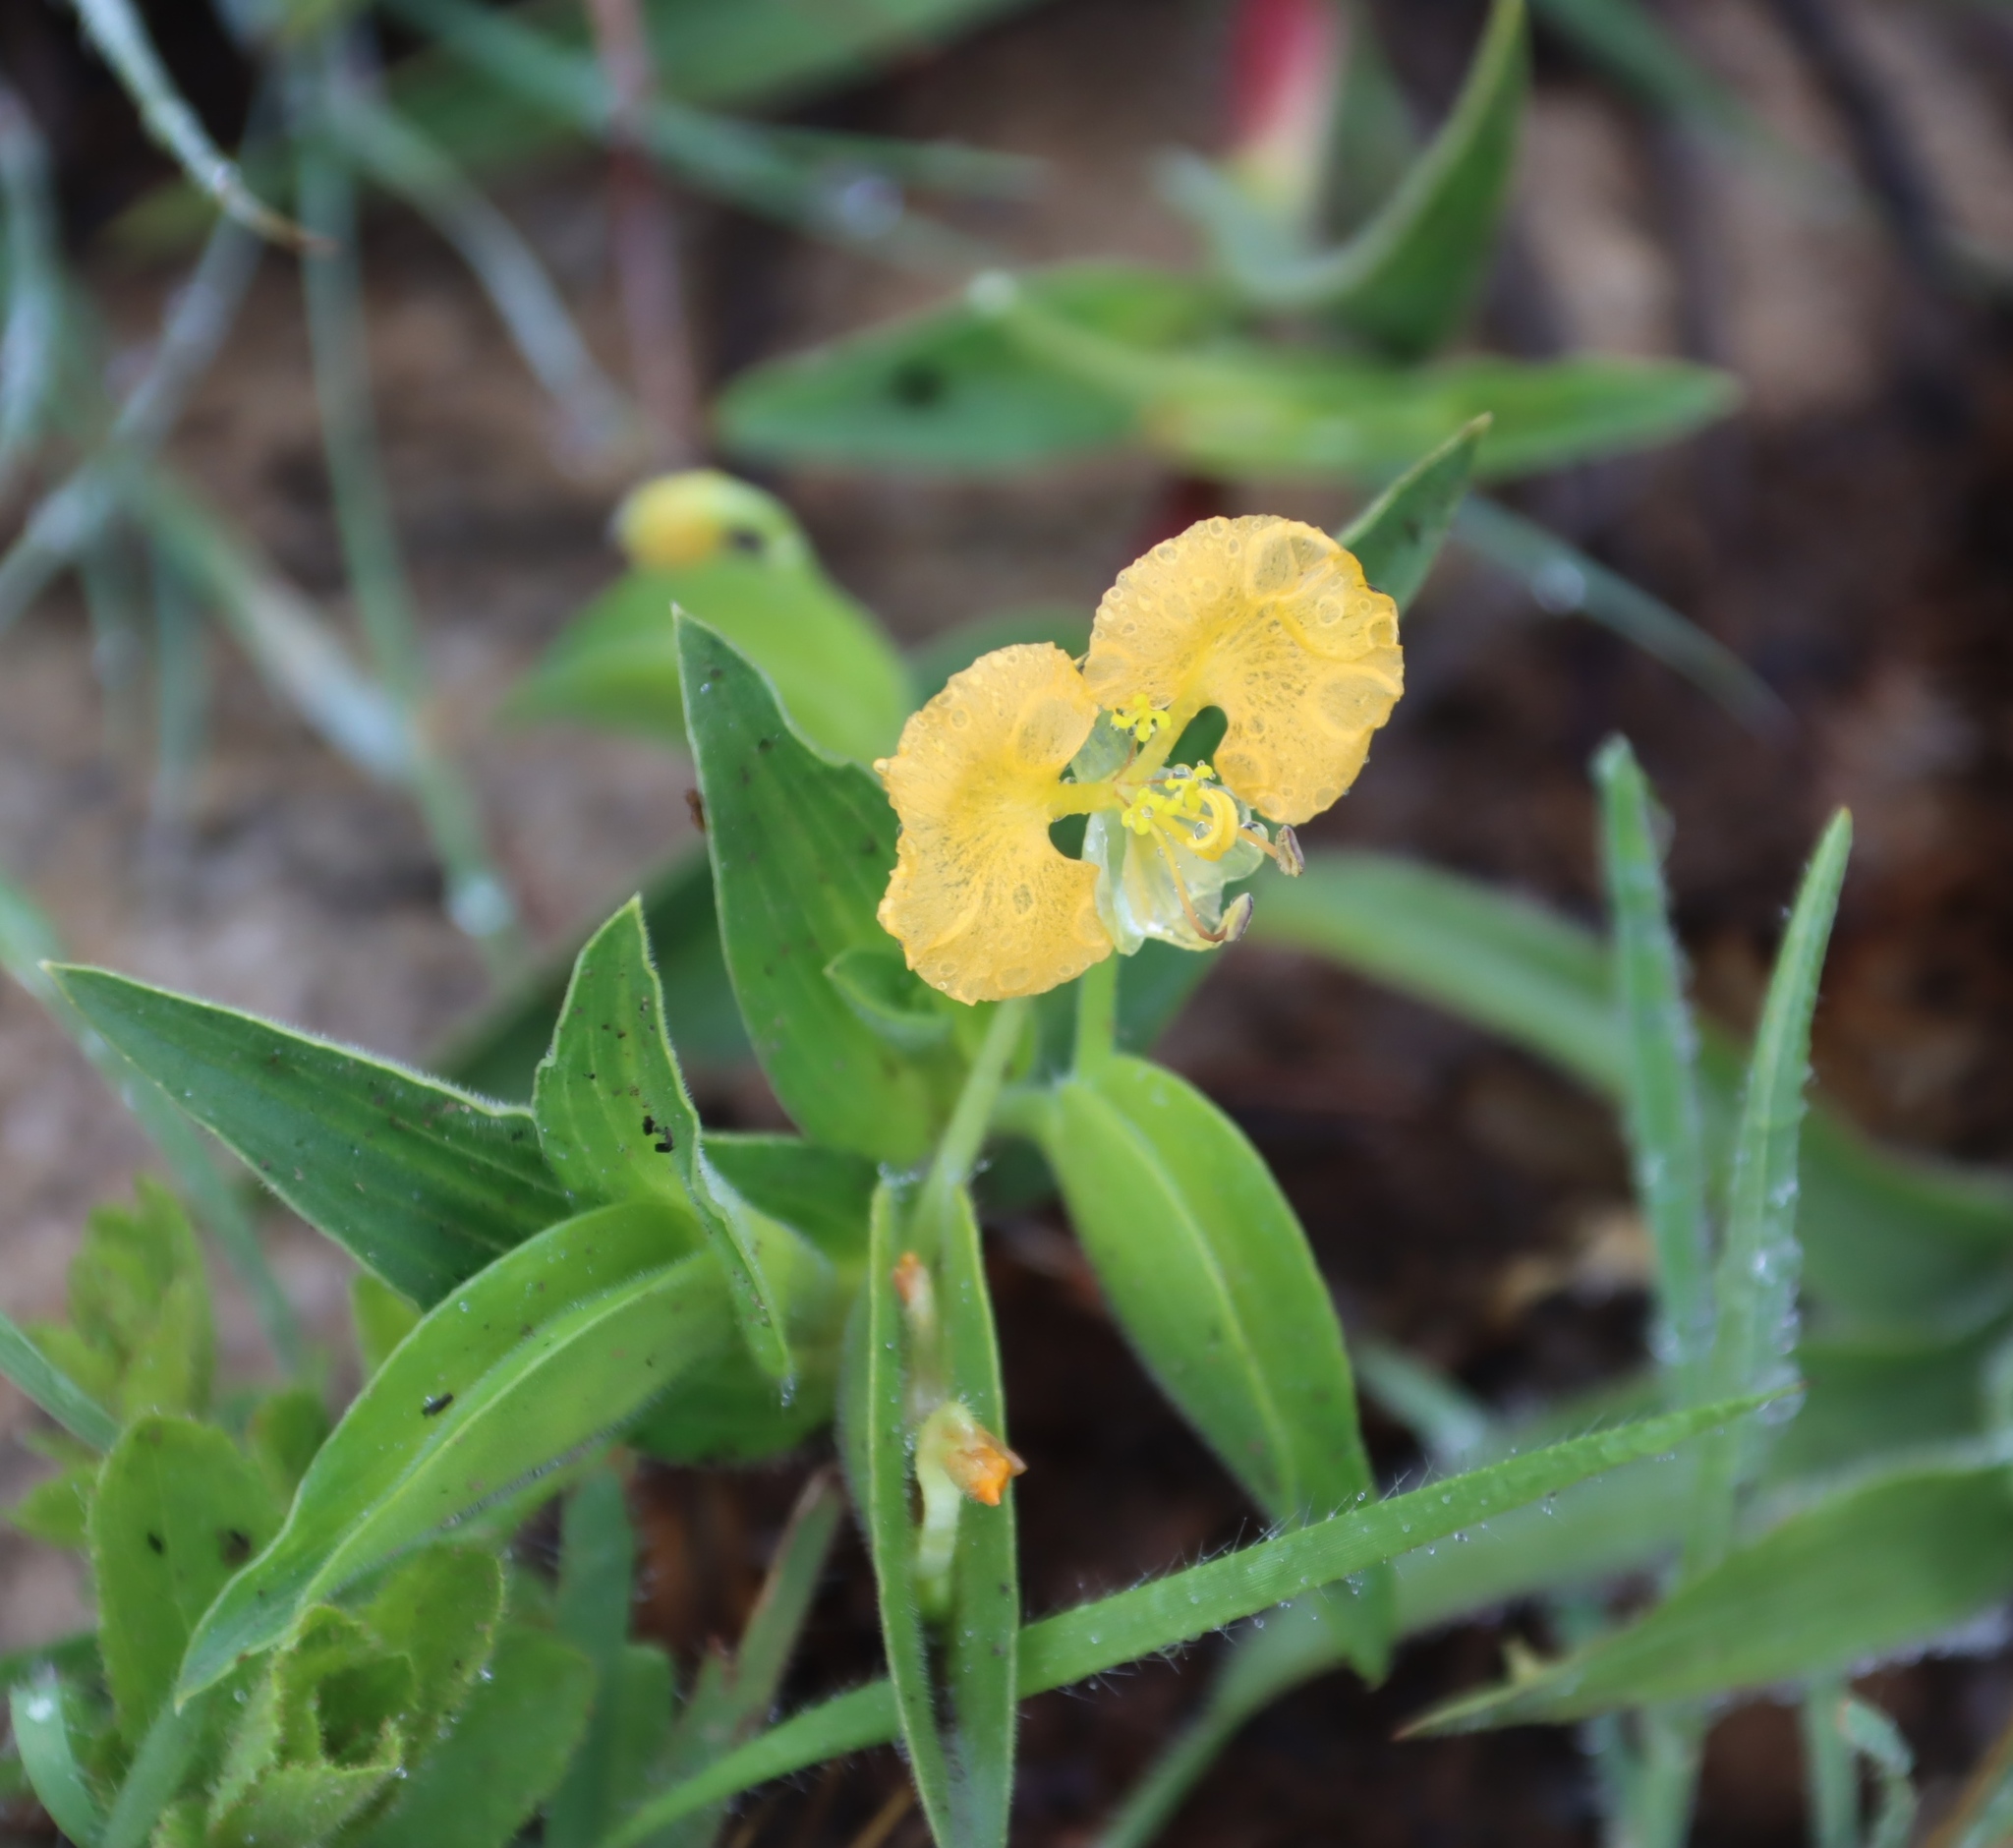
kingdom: Plantae
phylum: Tracheophyta
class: Liliopsida
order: Commelinales
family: Commelinaceae
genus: Commelina
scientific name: Commelina africana
